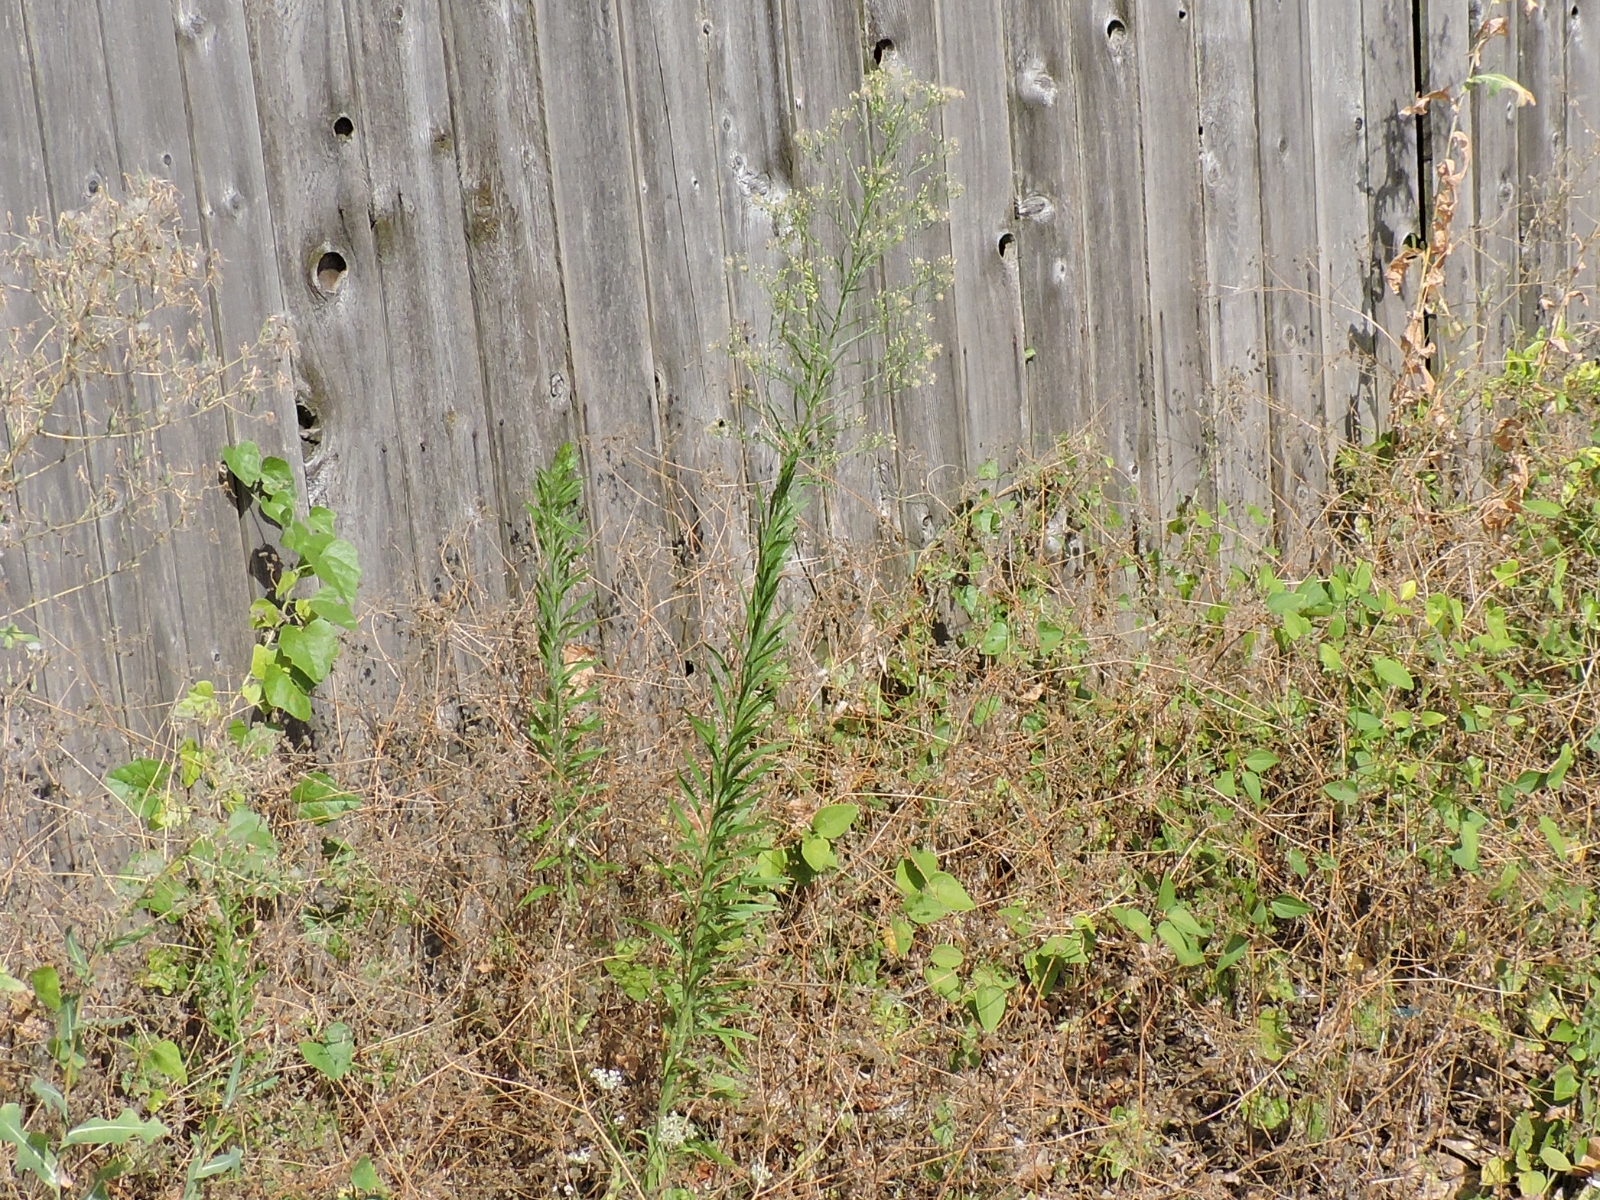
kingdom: Plantae
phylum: Tracheophyta
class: Magnoliopsida
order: Asterales
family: Asteraceae
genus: Erigeron
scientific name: Erigeron canadensis
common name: Canadian fleabane
